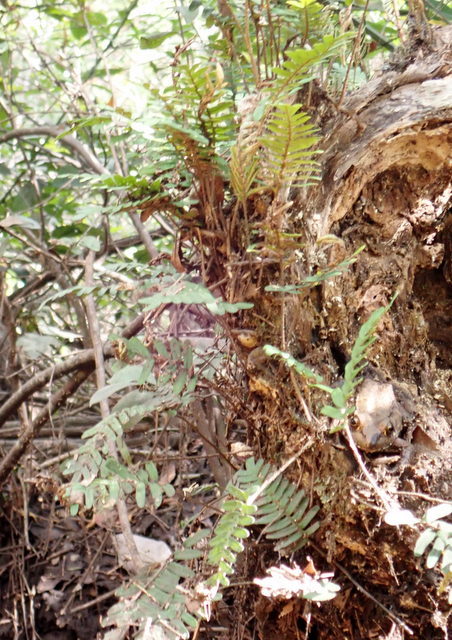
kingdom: Plantae
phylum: Tracheophyta
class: Polypodiopsida
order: Polypodiales
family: Polypodiaceae
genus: Pleopeltis
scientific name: Pleopeltis michauxiana
